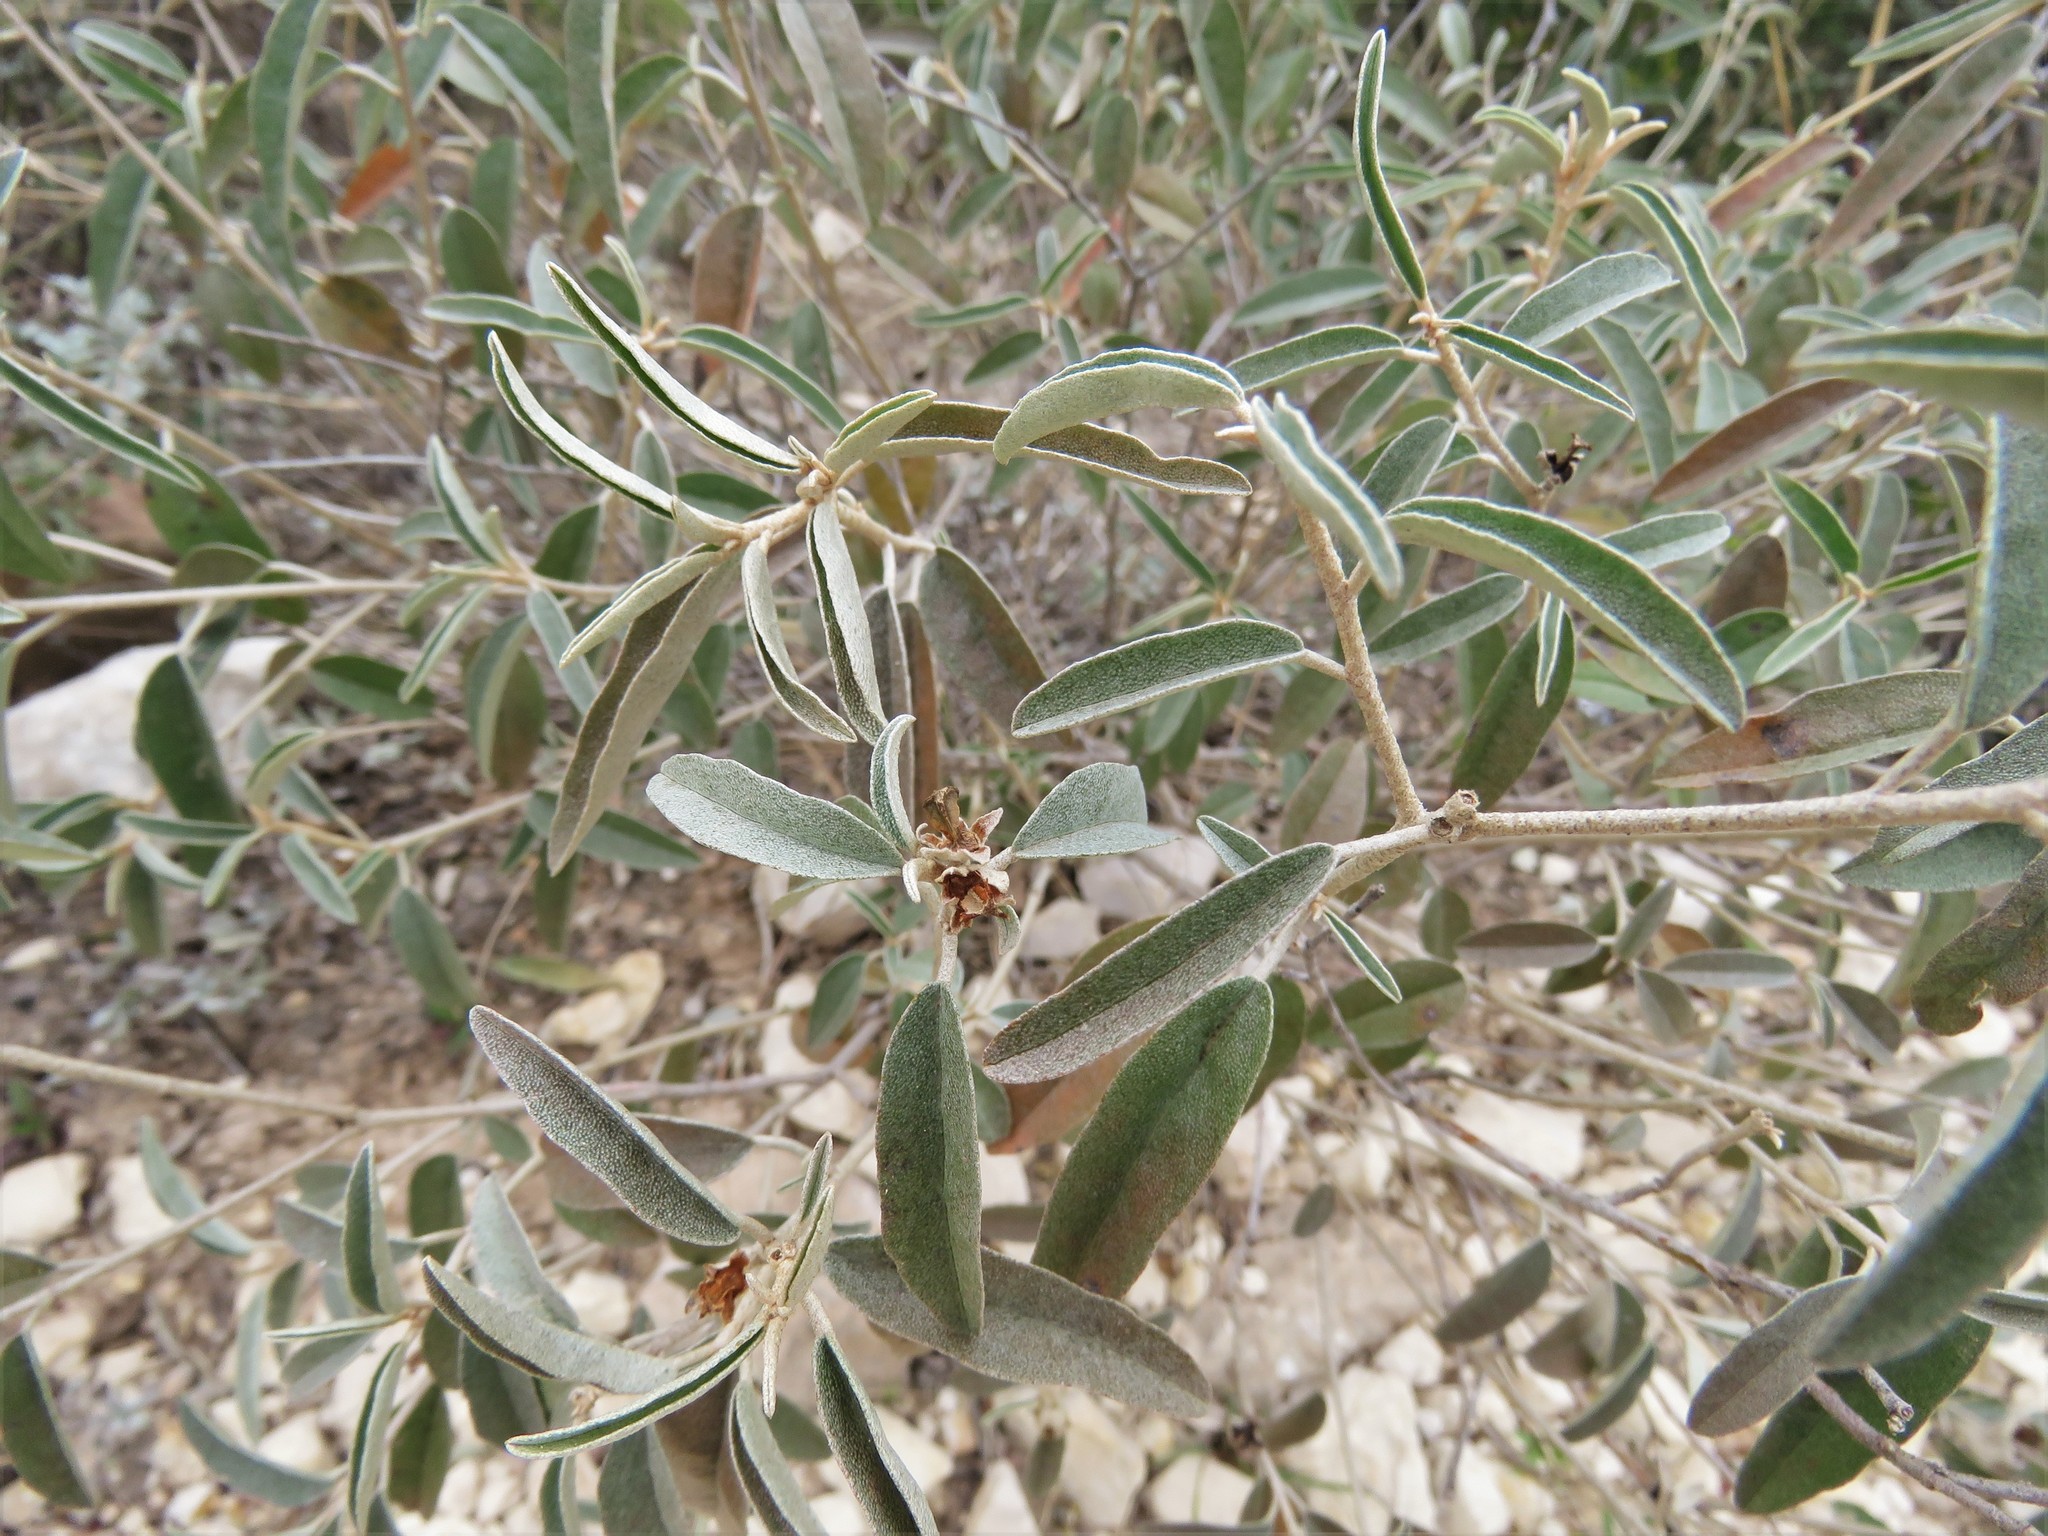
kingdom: Plantae
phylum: Tracheophyta
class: Magnoliopsida
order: Malpighiales
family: Euphorbiaceae
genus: Croton
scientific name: Croton dioicus
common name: Grassland croton
